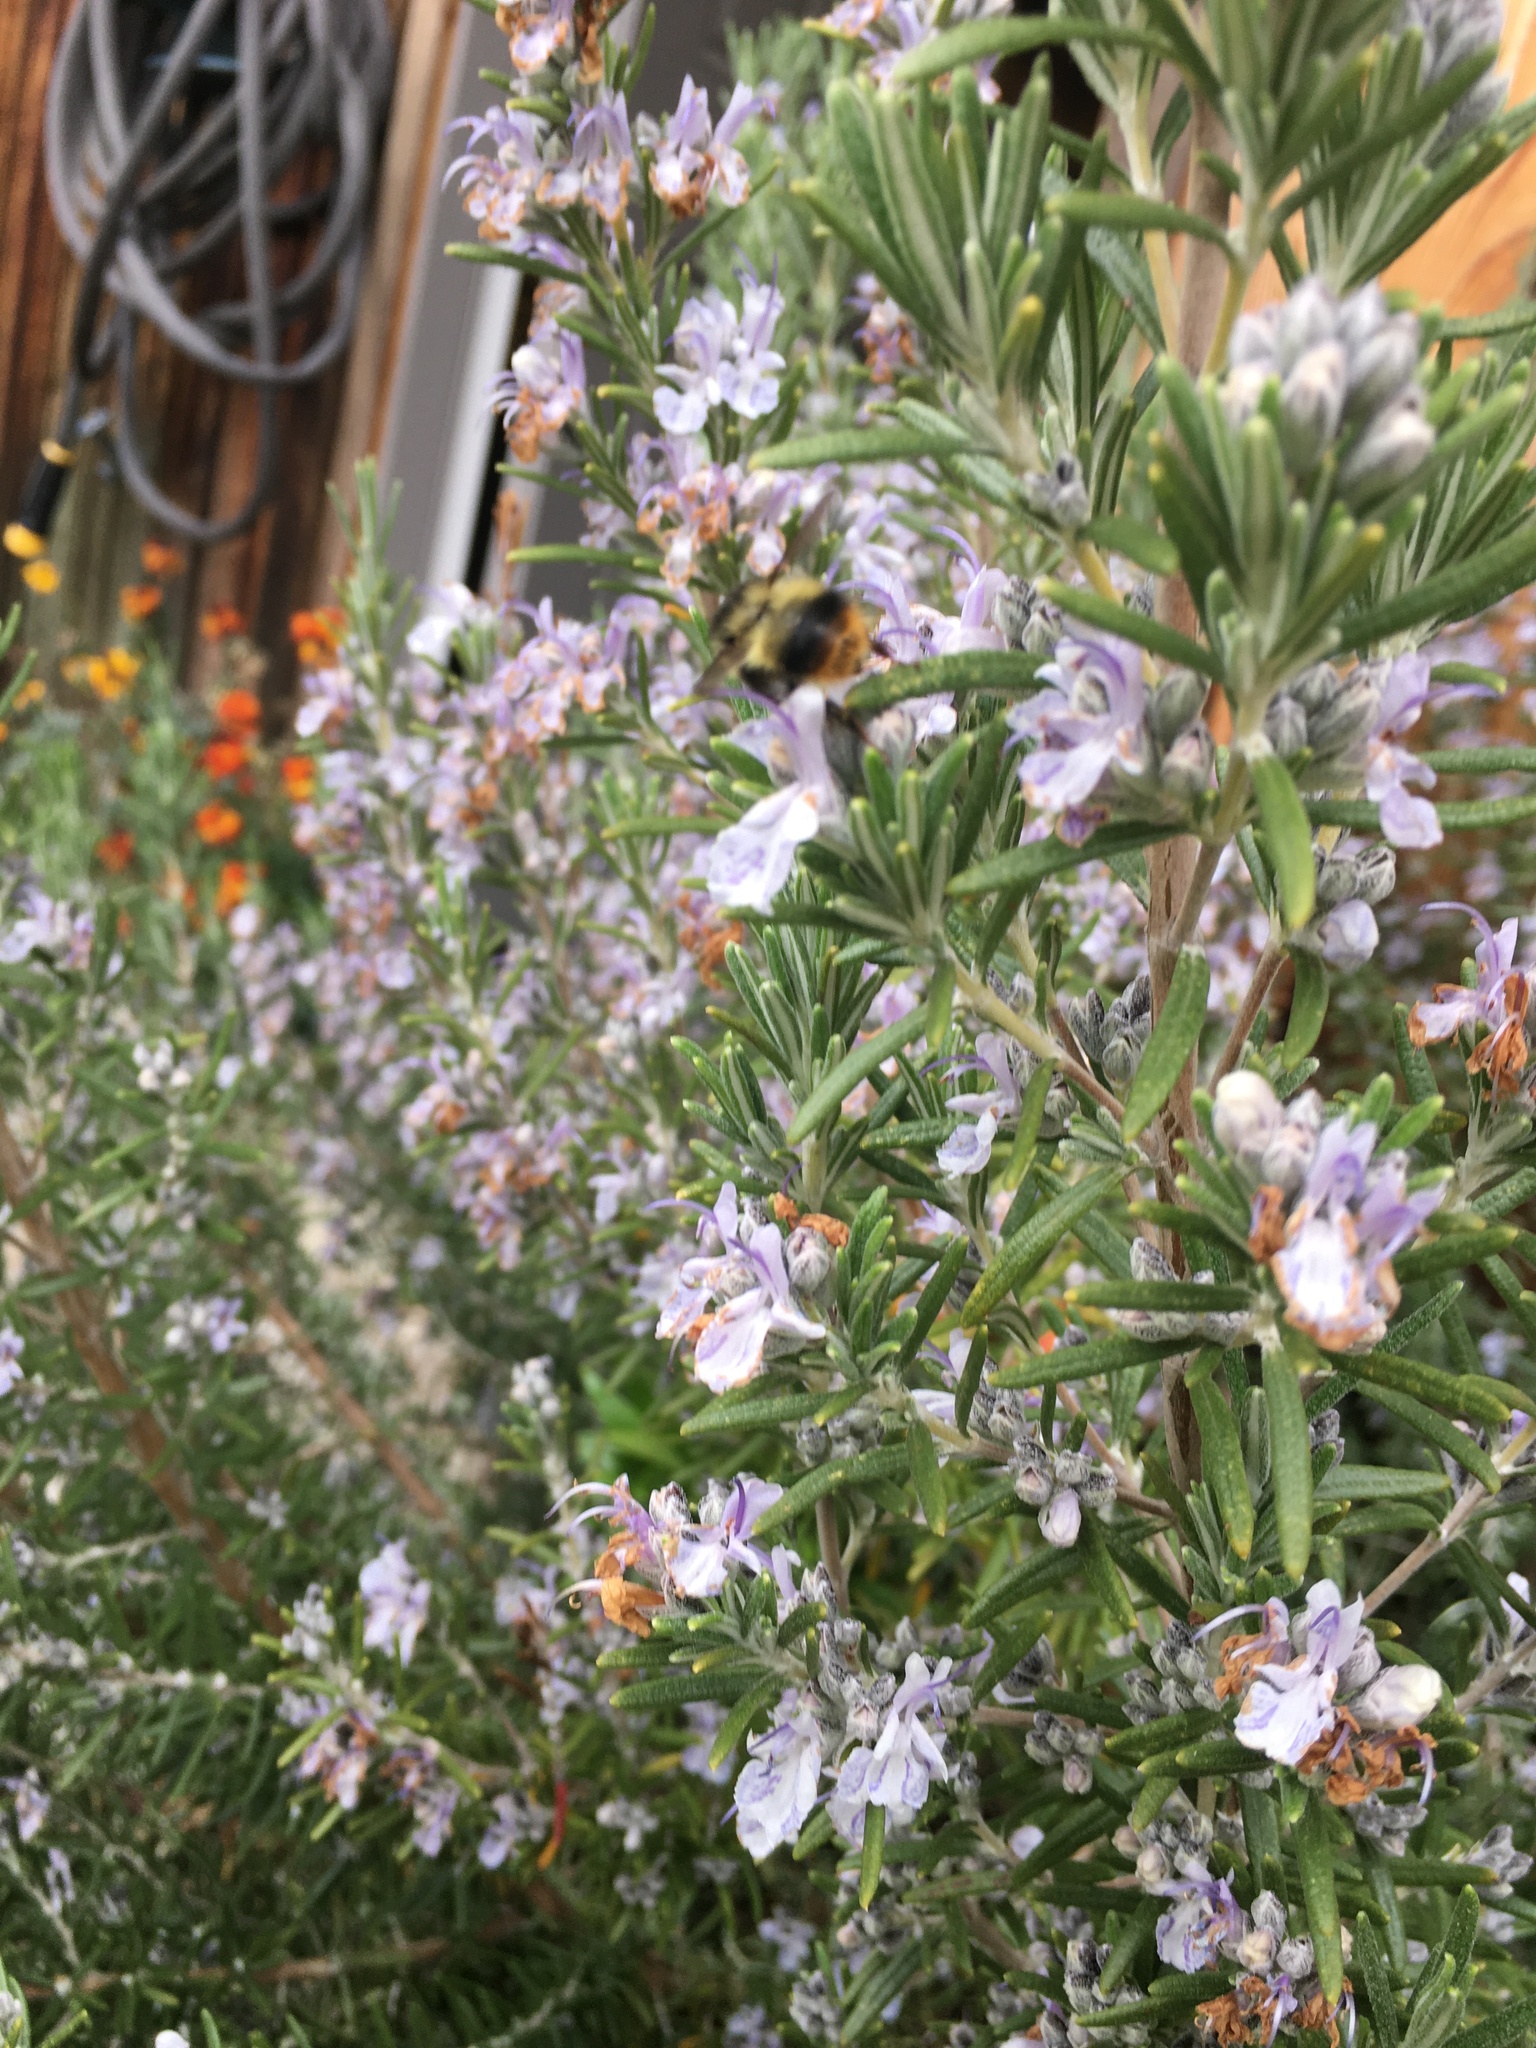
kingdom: Animalia
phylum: Arthropoda
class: Insecta
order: Hymenoptera
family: Apidae
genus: Bombus
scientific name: Bombus mixtus
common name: Fuzzy-horned bumble bee
